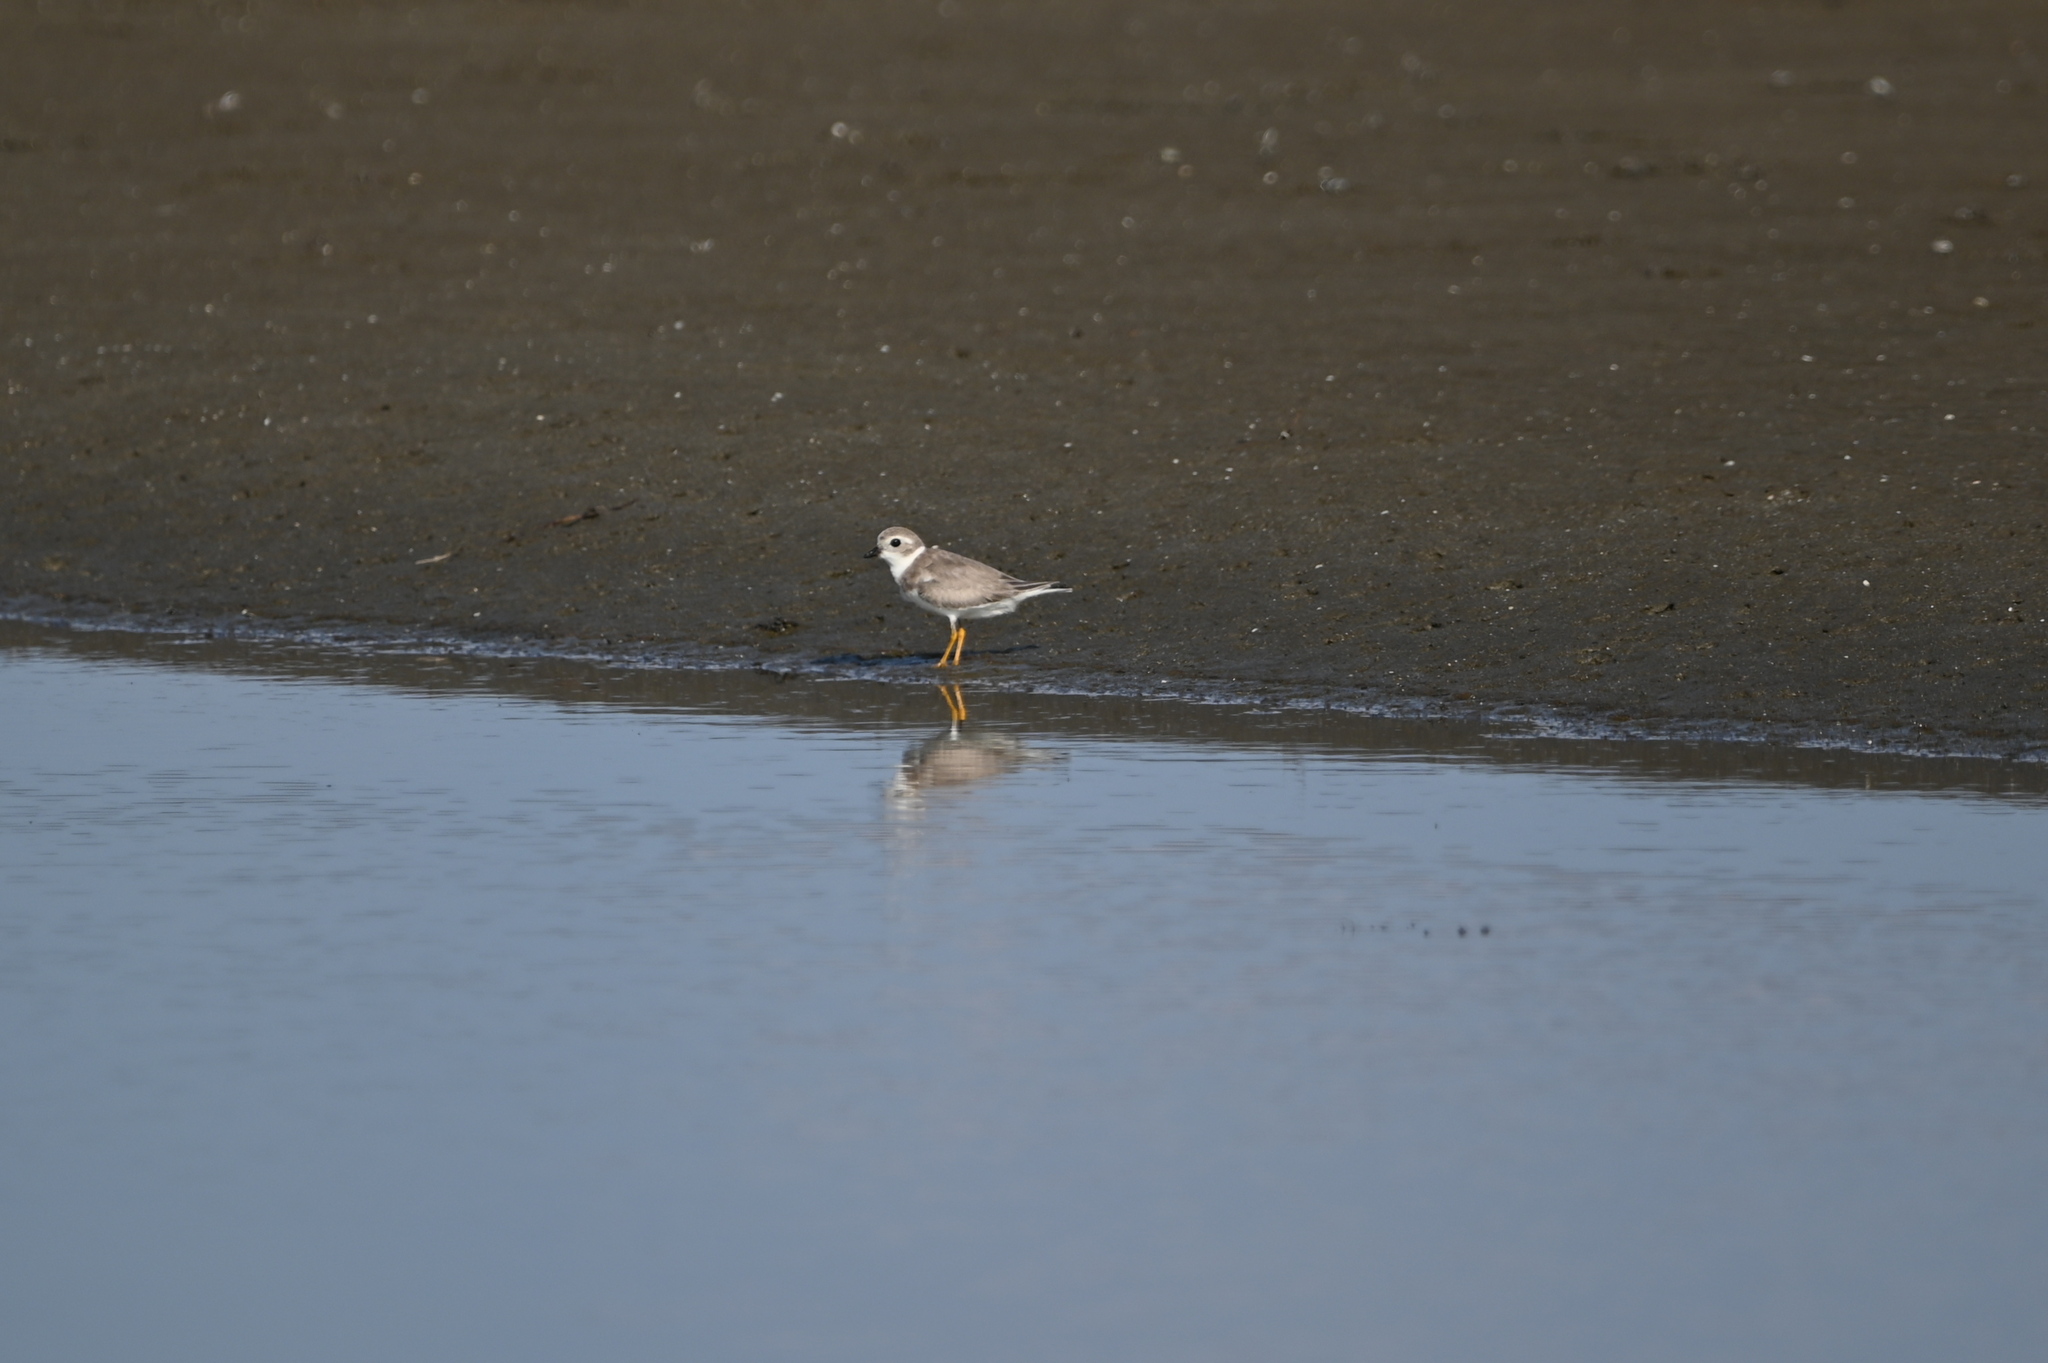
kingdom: Animalia
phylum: Chordata
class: Aves
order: Charadriiformes
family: Charadriidae
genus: Charadrius
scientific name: Charadrius melodus
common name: Piping plover
